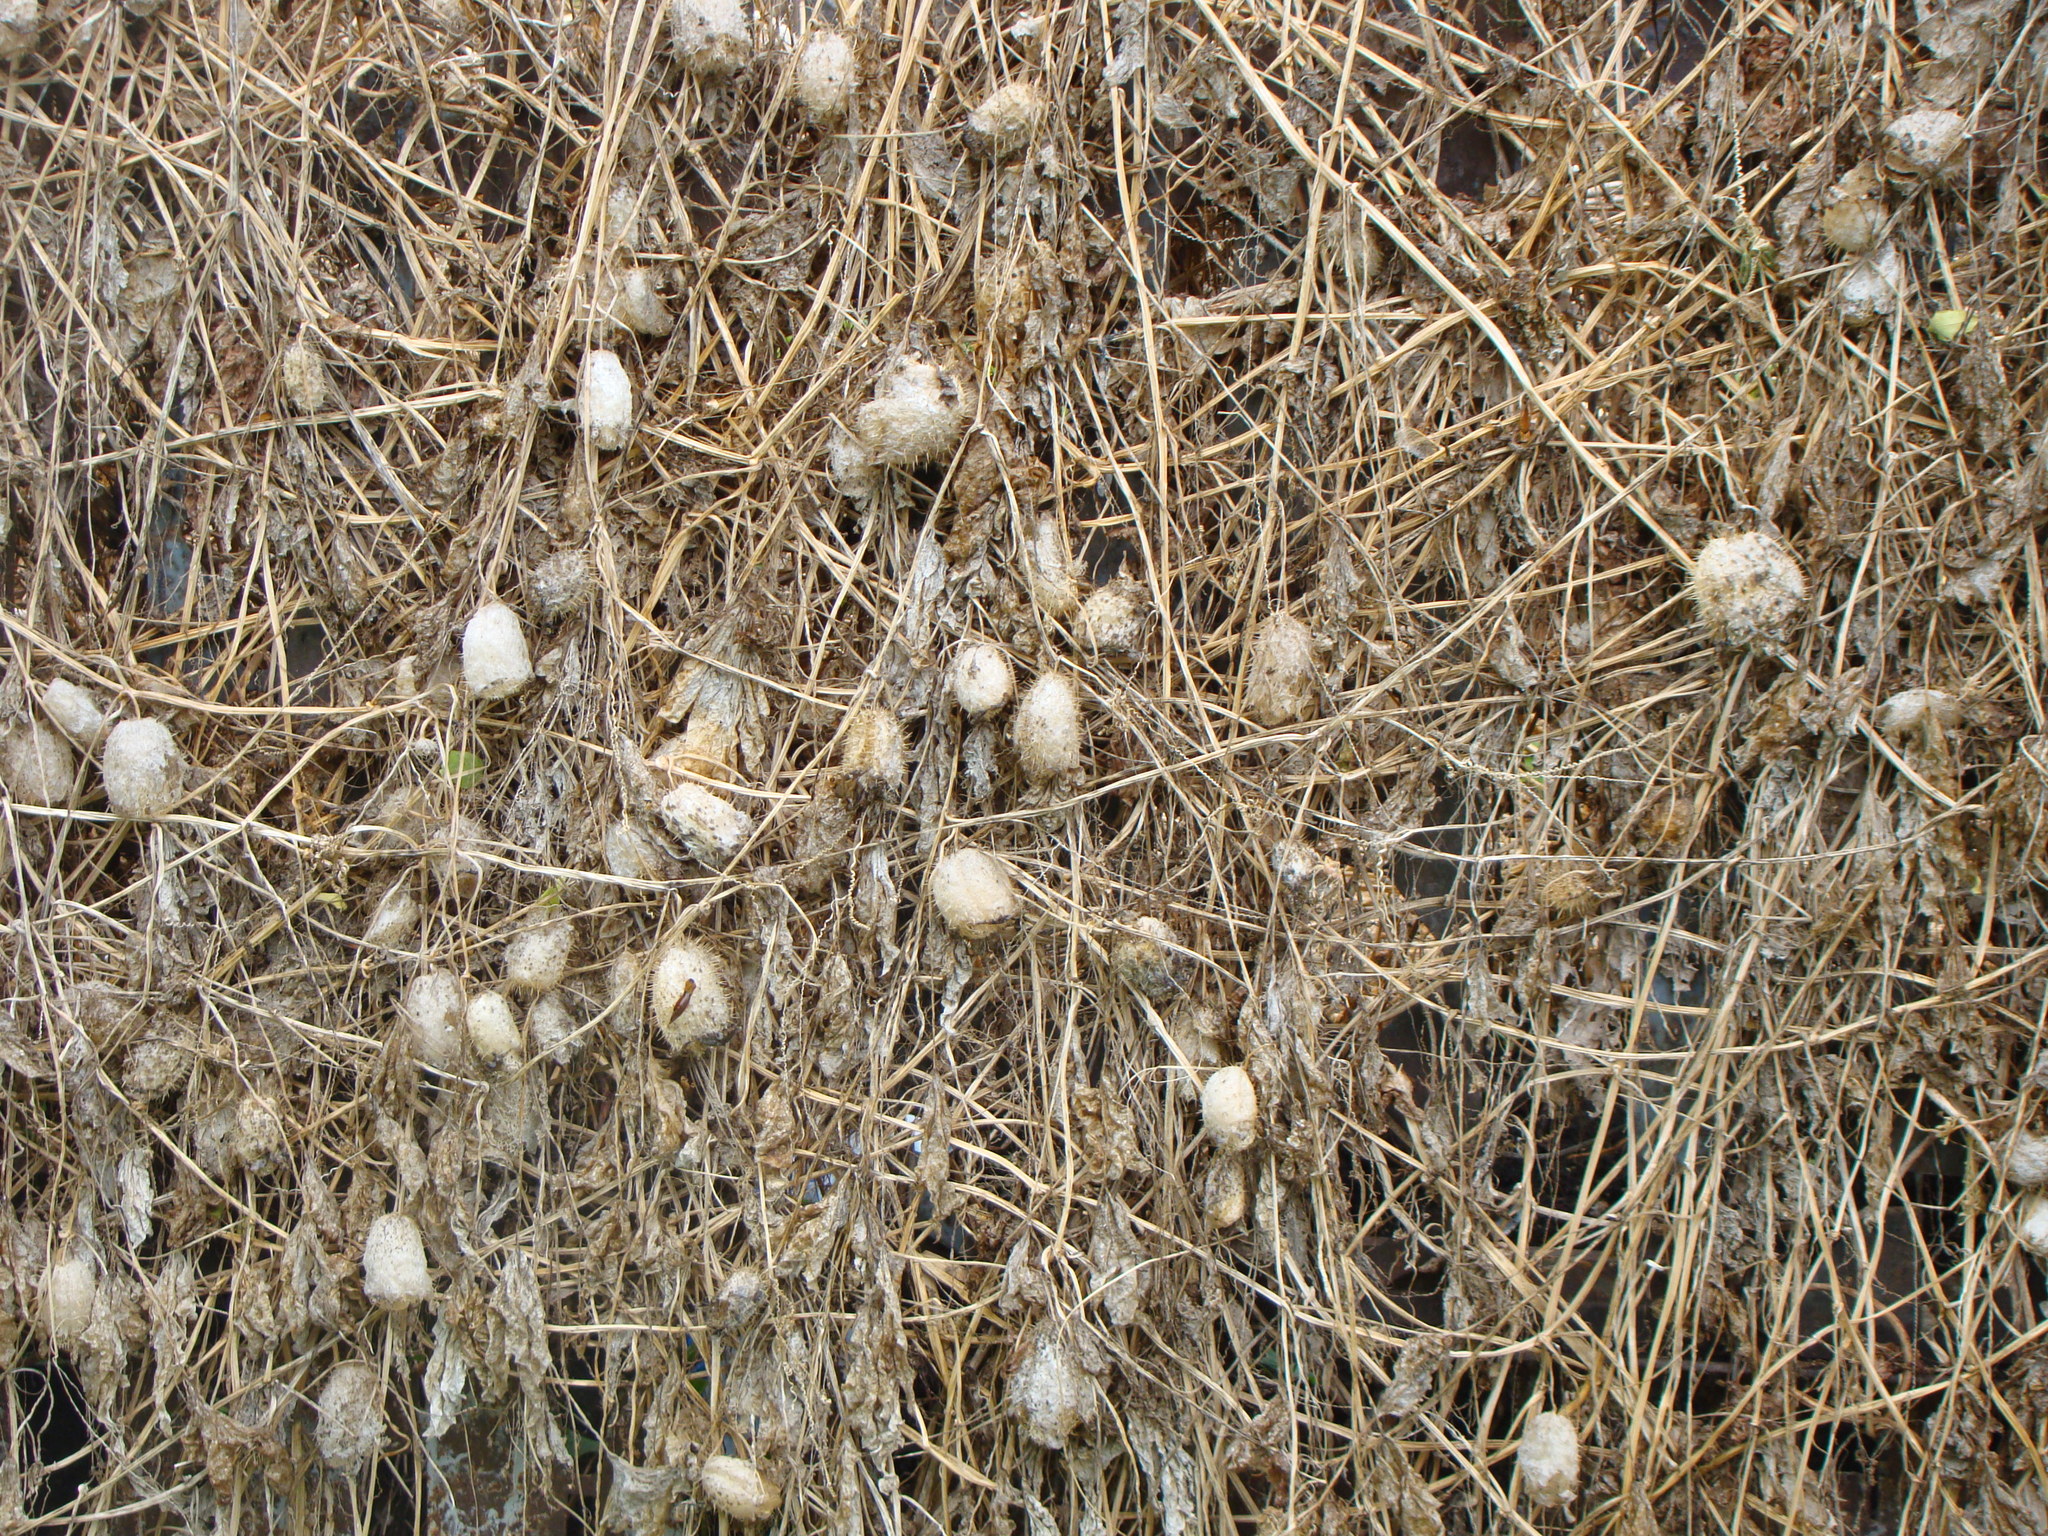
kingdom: Plantae
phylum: Tracheophyta
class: Magnoliopsida
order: Cucurbitales
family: Cucurbitaceae
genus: Echinocystis
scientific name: Echinocystis lobata
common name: Wild cucumber
